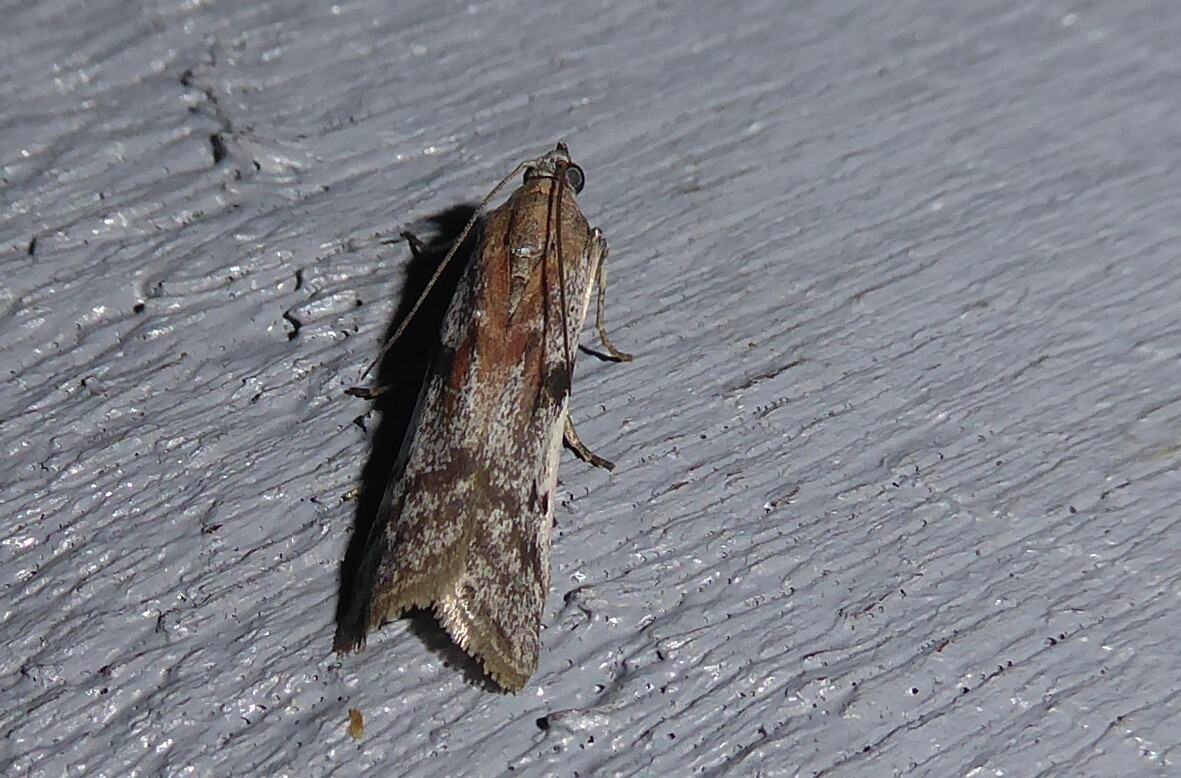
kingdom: Animalia
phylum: Arthropoda
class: Insecta
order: Lepidoptera
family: Pyralidae
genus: Patagoniodes
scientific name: Patagoniodes farinaria
